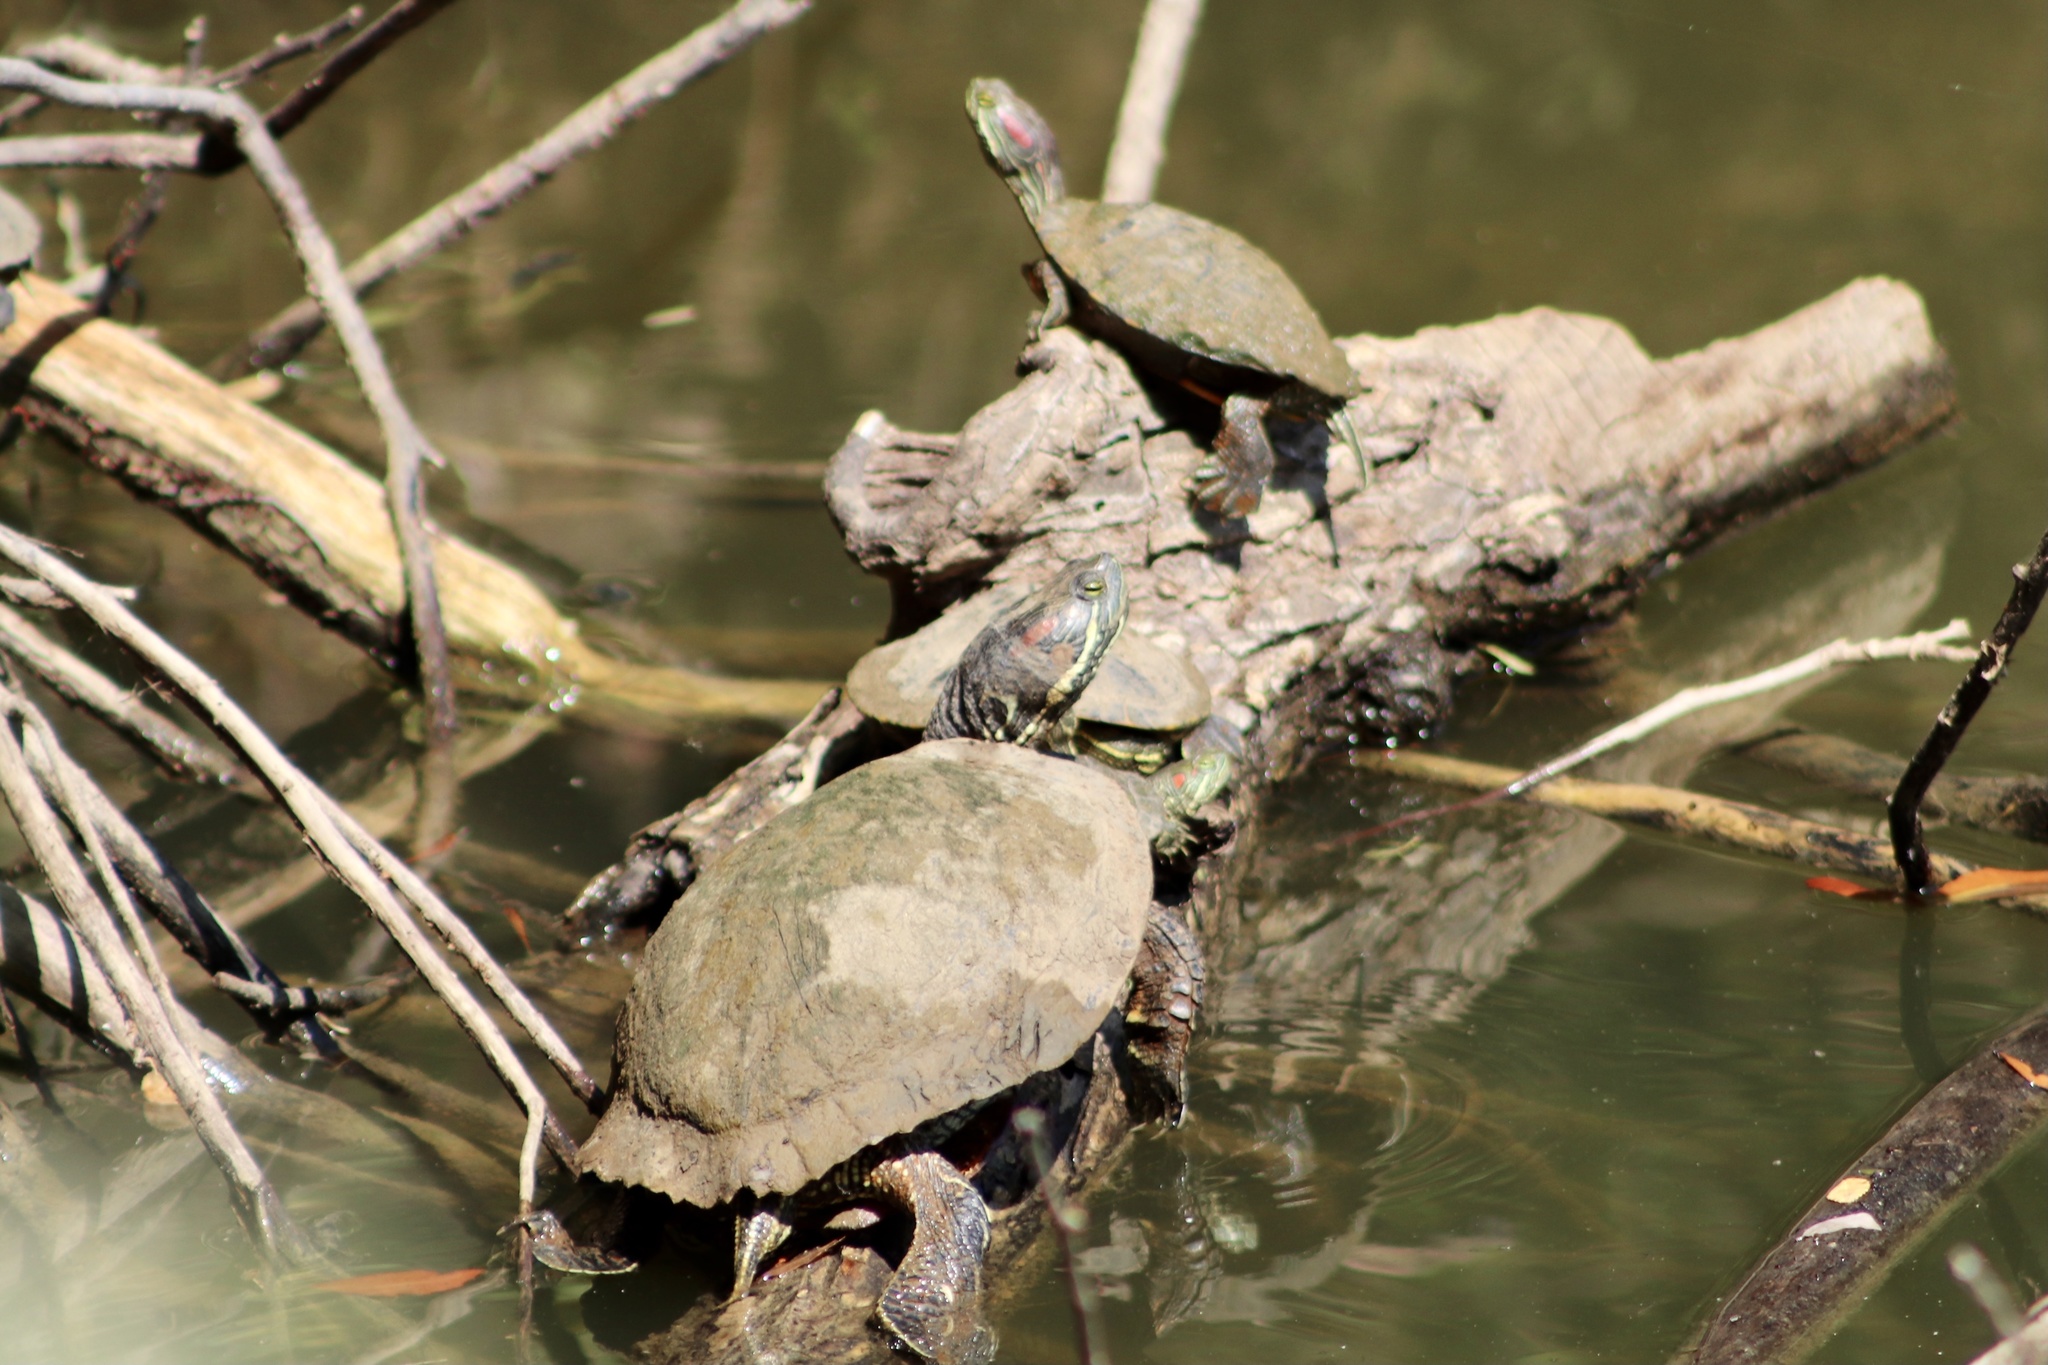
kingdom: Animalia
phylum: Chordata
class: Testudines
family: Emydidae
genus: Trachemys
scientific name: Trachemys scripta
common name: Slider
